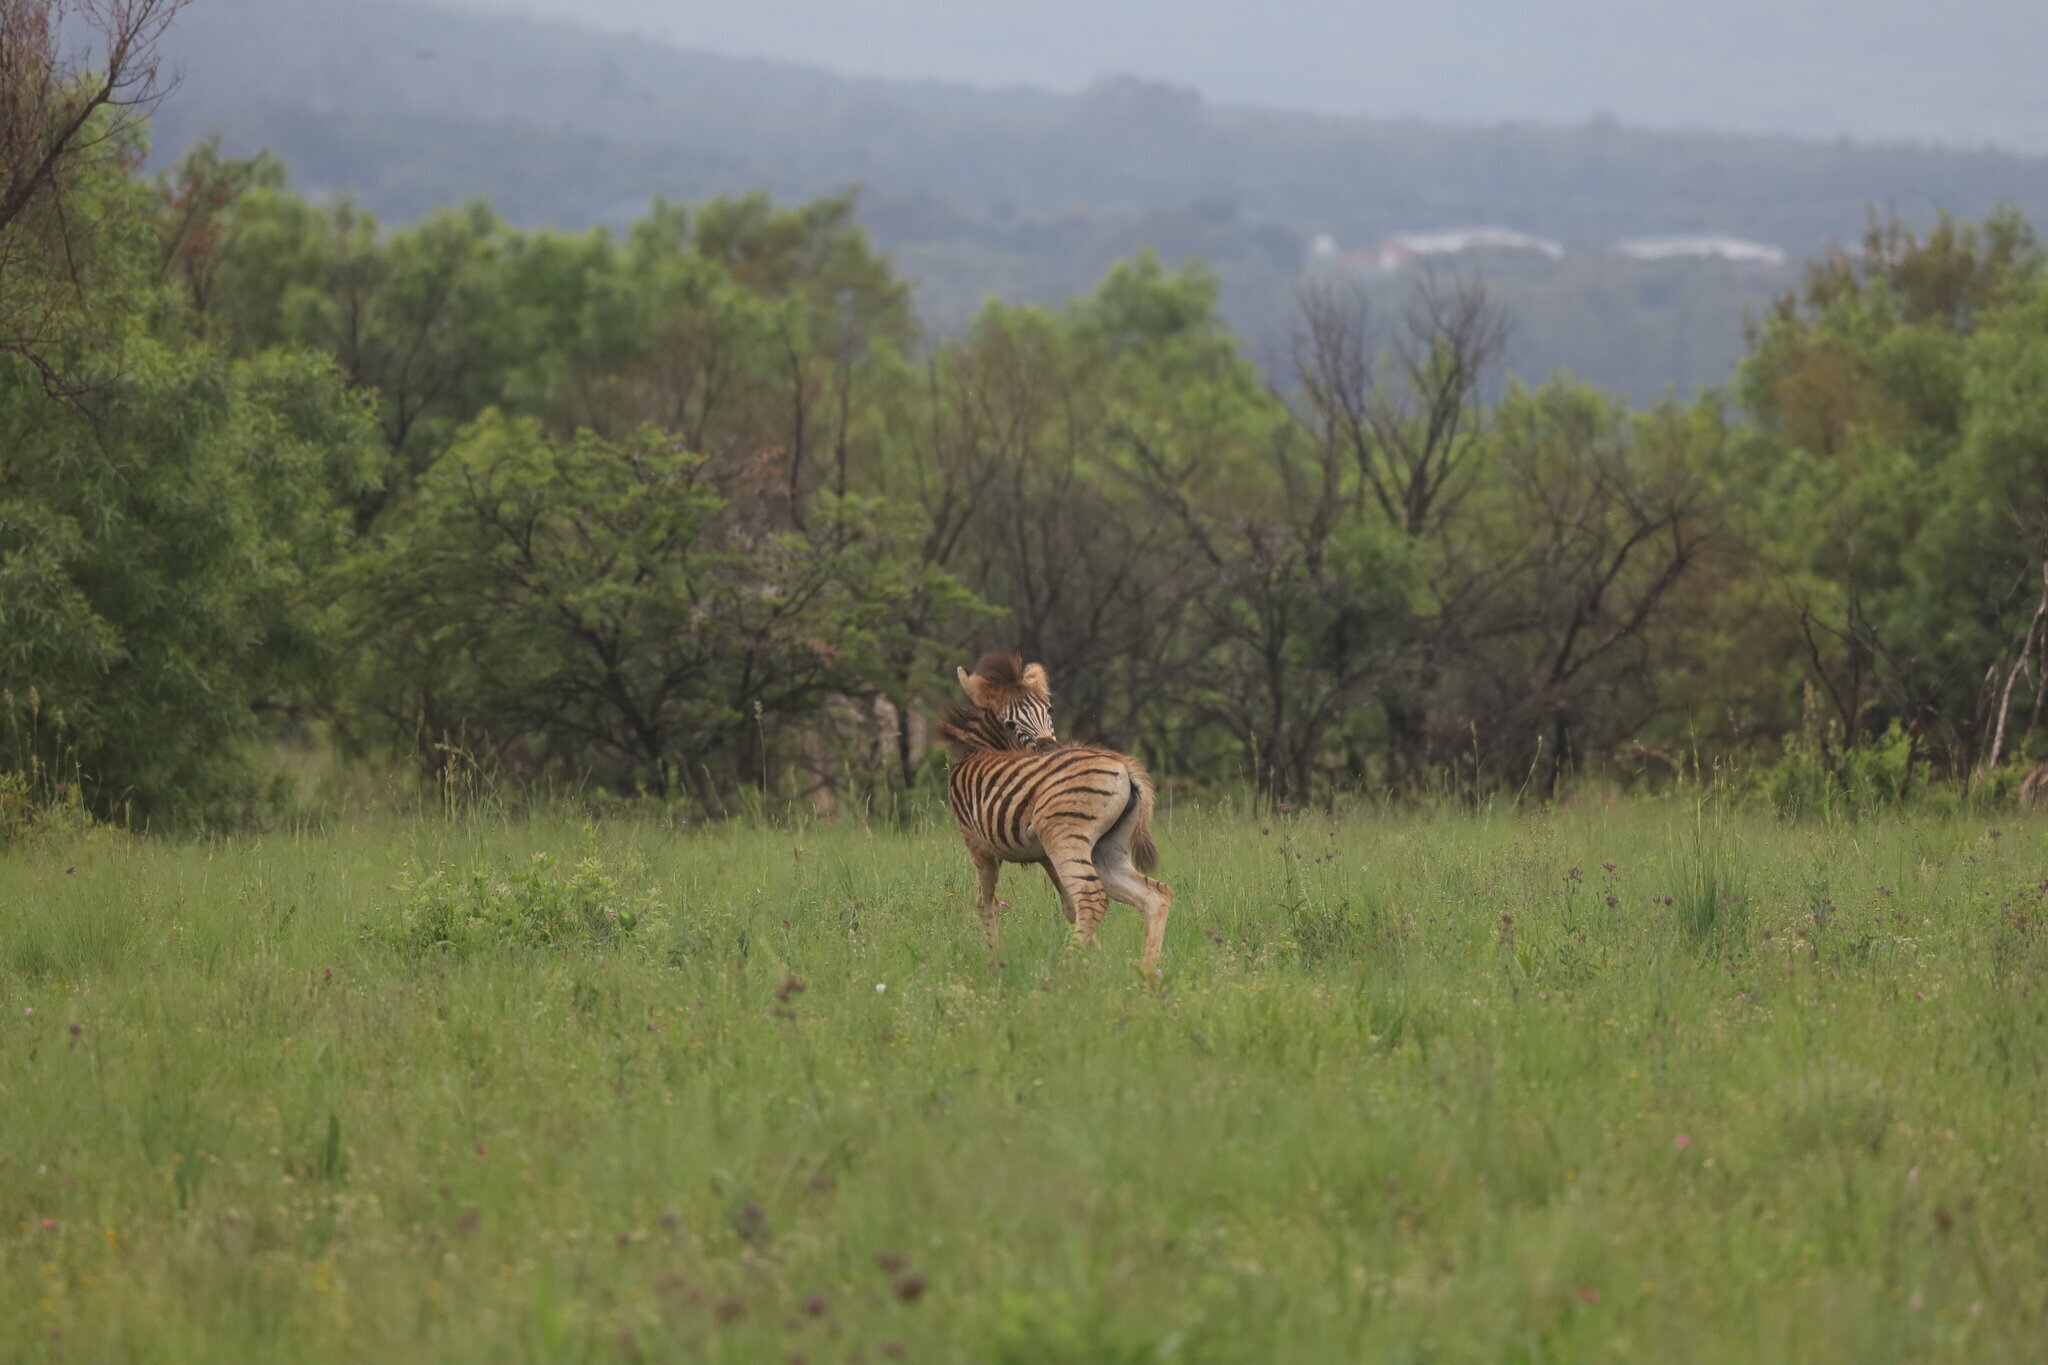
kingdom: Animalia
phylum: Chordata
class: Mammalia
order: Perissodactyla
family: Equidae
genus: Equus
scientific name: Equus quagga
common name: Plains zebra
